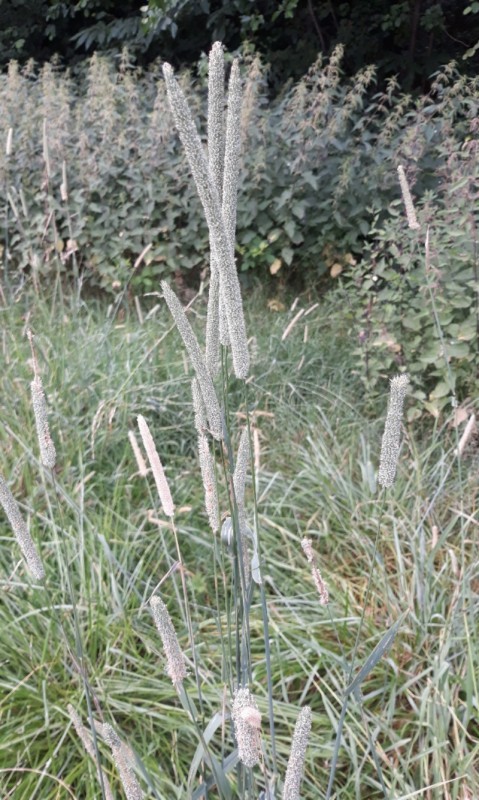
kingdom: Plantae
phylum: Tracheophyta
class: Liliopsida
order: Poales
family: Poaceae
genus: Phleum
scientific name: Phleum pratense
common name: Timothy grass
